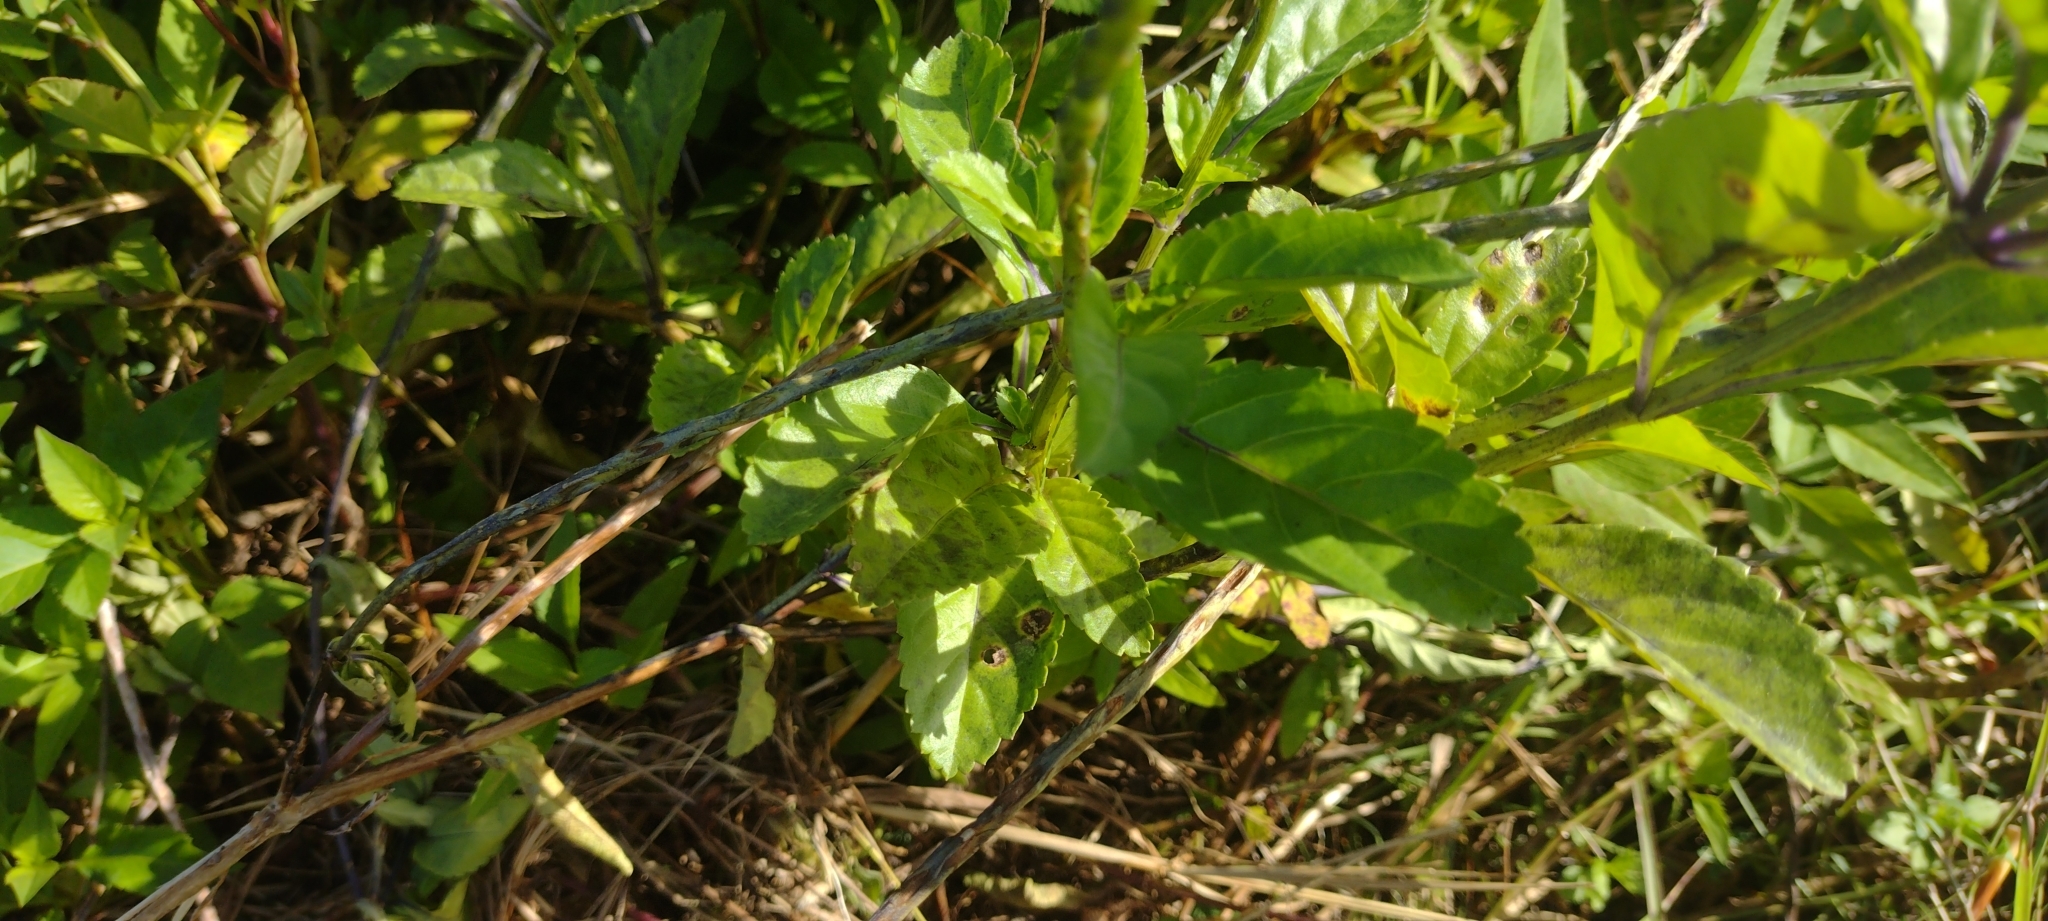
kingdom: Plantae
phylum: Tracheophyta
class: Magnoliopsida
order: Lamiales
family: Verbenaceae
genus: Stachytarpheta
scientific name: Stachytarpheta jamaicensis
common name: Light-blue snakeweed
